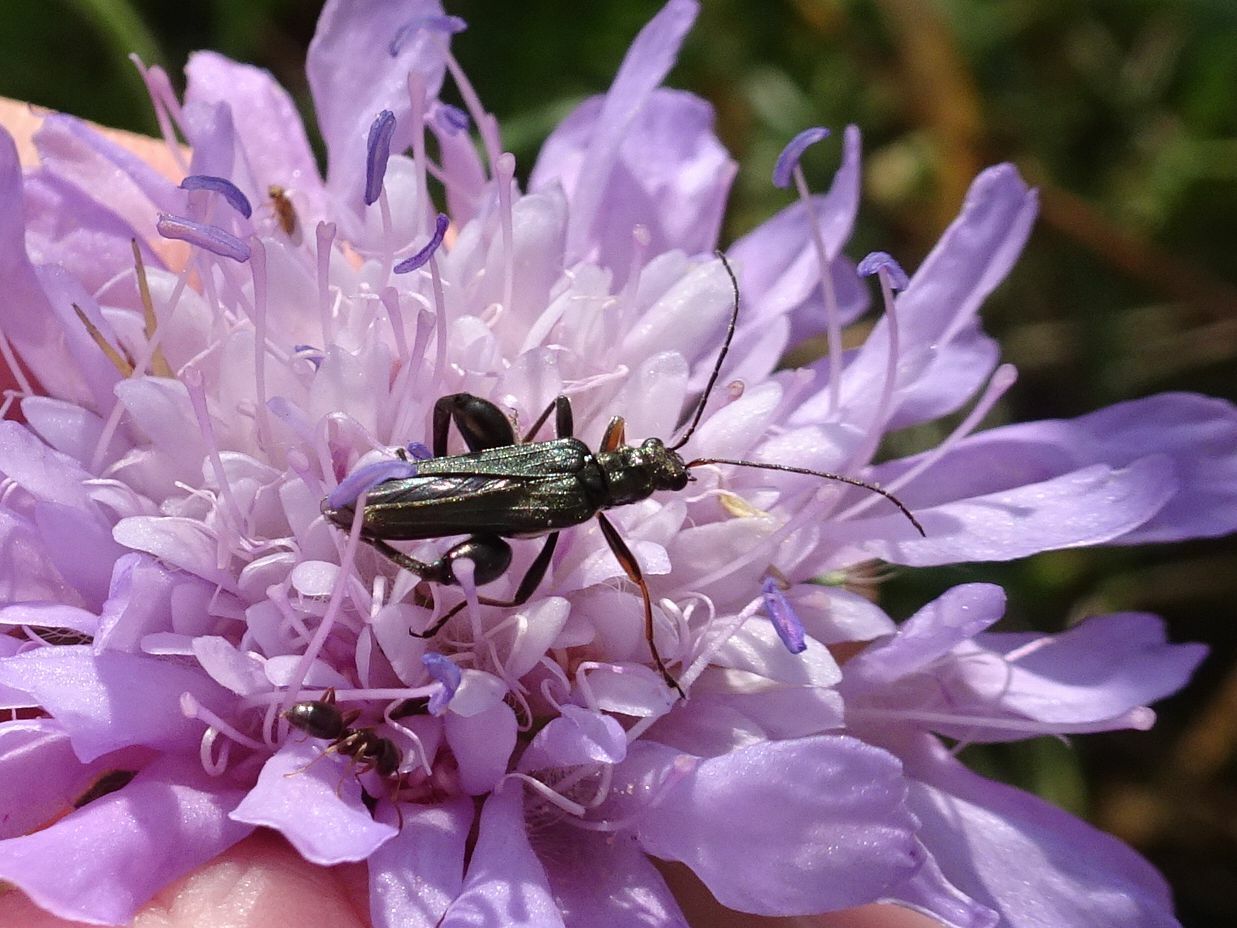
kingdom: Animalia
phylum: Arthropoda
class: Insecta
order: Coleoptera
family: Oedemeridae
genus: Oedemera
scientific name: Oedemera flavipes
